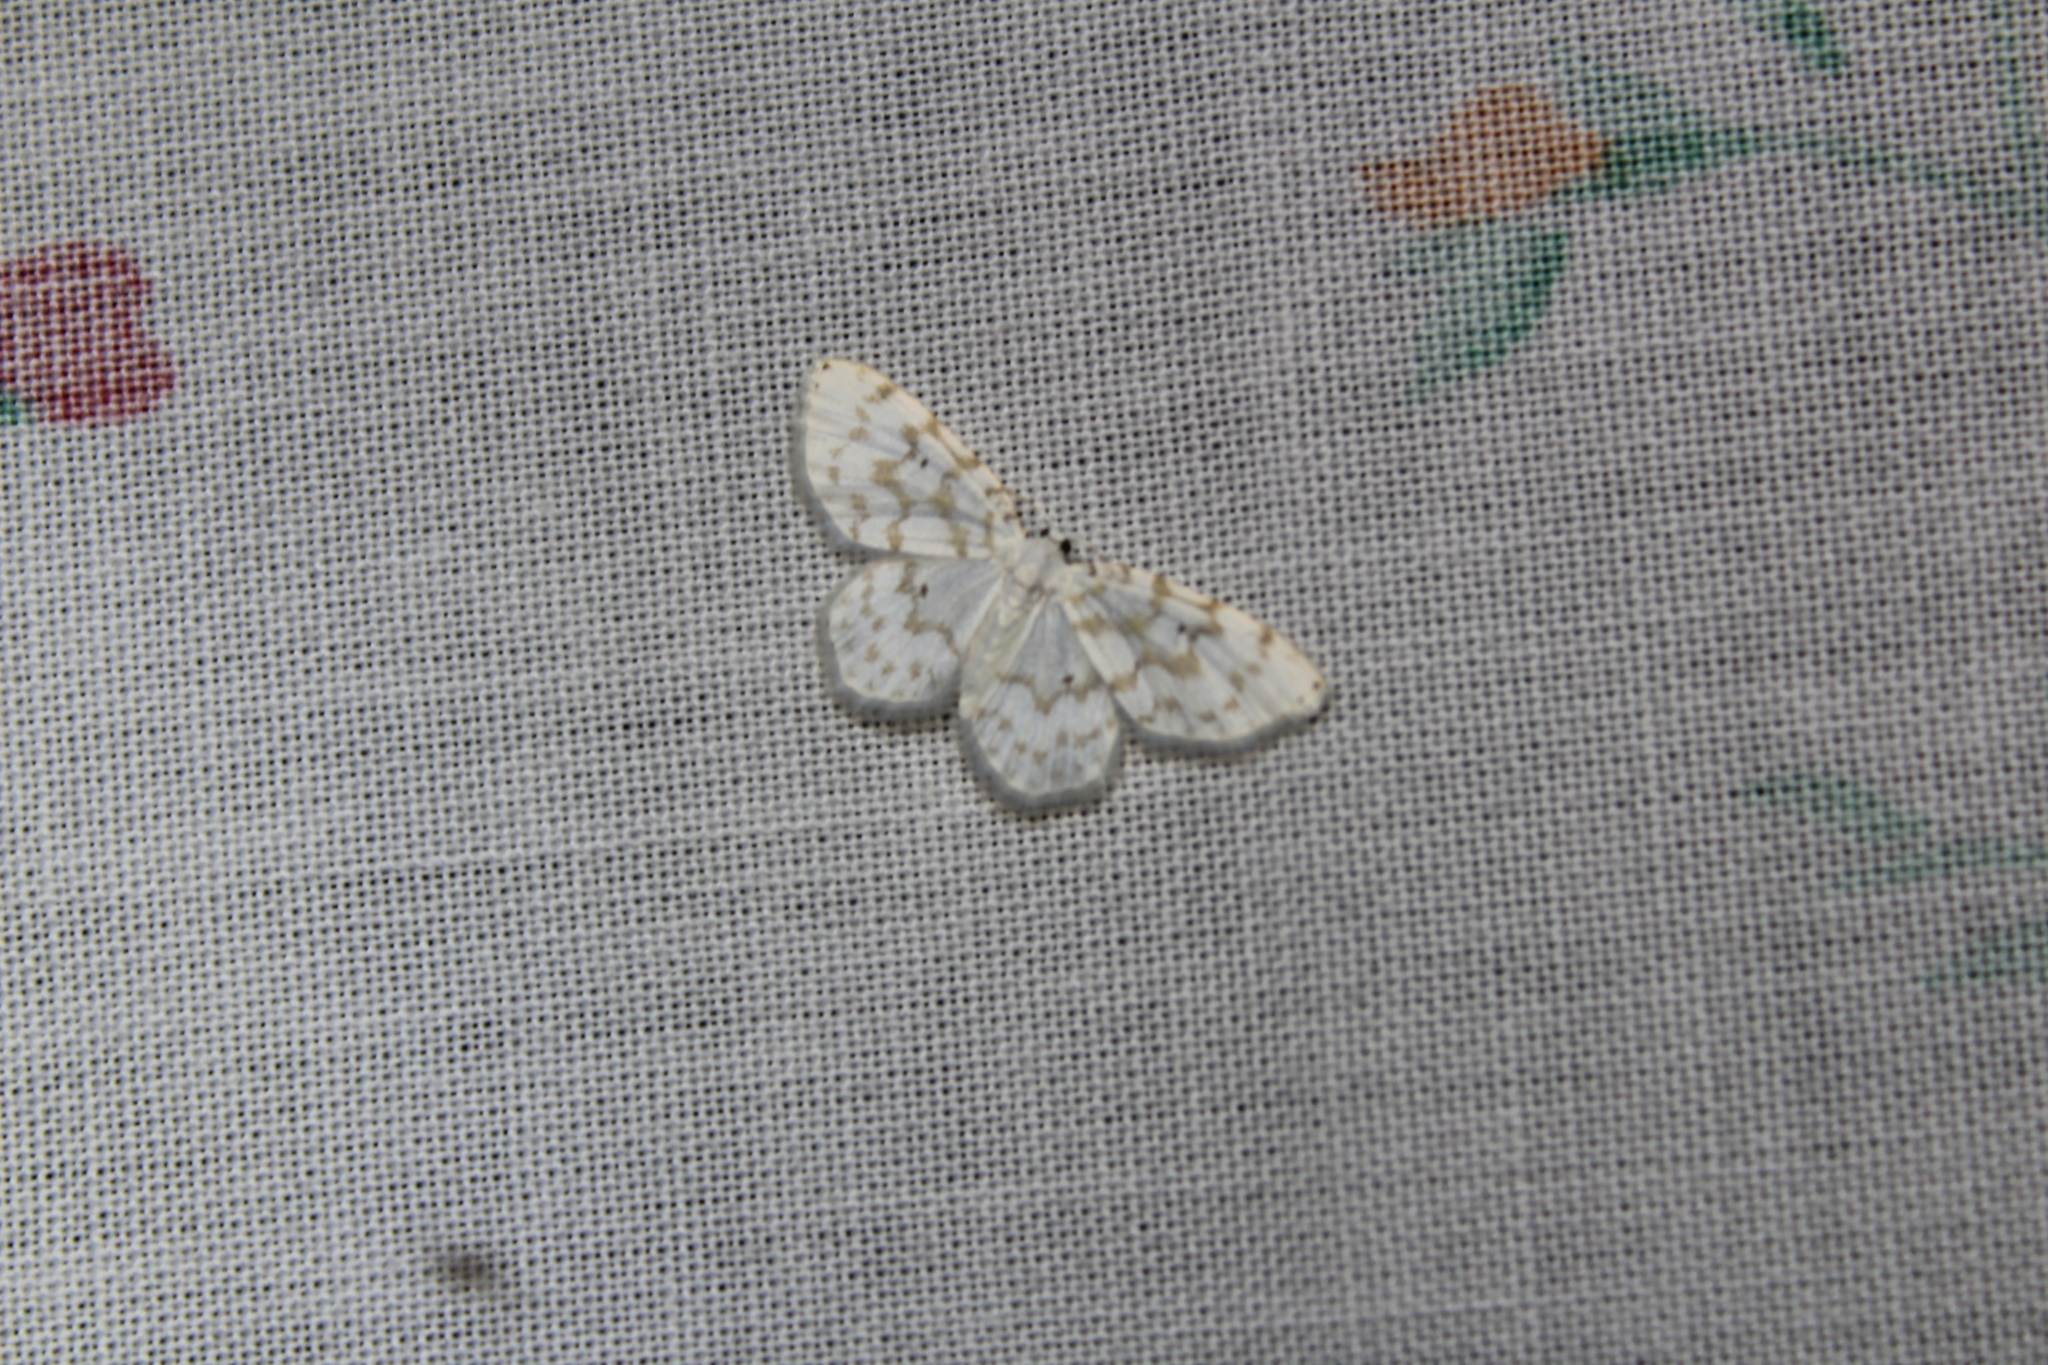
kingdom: Animalia
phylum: Arthropoda
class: Insecta
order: Lepidoptera
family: Geometridae
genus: Hydrelia
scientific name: Hydrelia albifera
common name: Fragile white carpet
